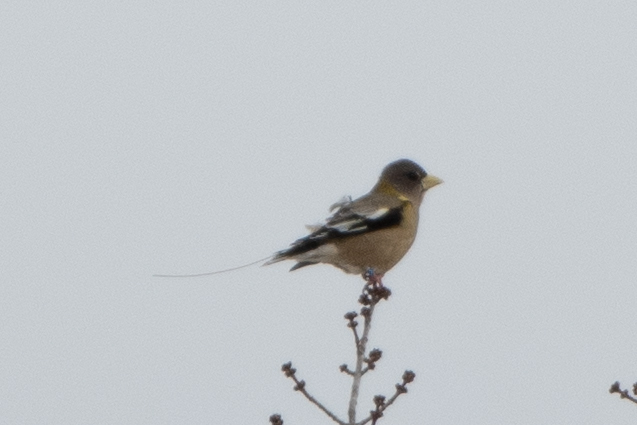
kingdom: Animalia
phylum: Chordata
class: Aves
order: Passeriformes
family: Fringillidae
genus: Hesperiphona
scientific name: Hesperiphona vespertina
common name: Evening grosbeak
